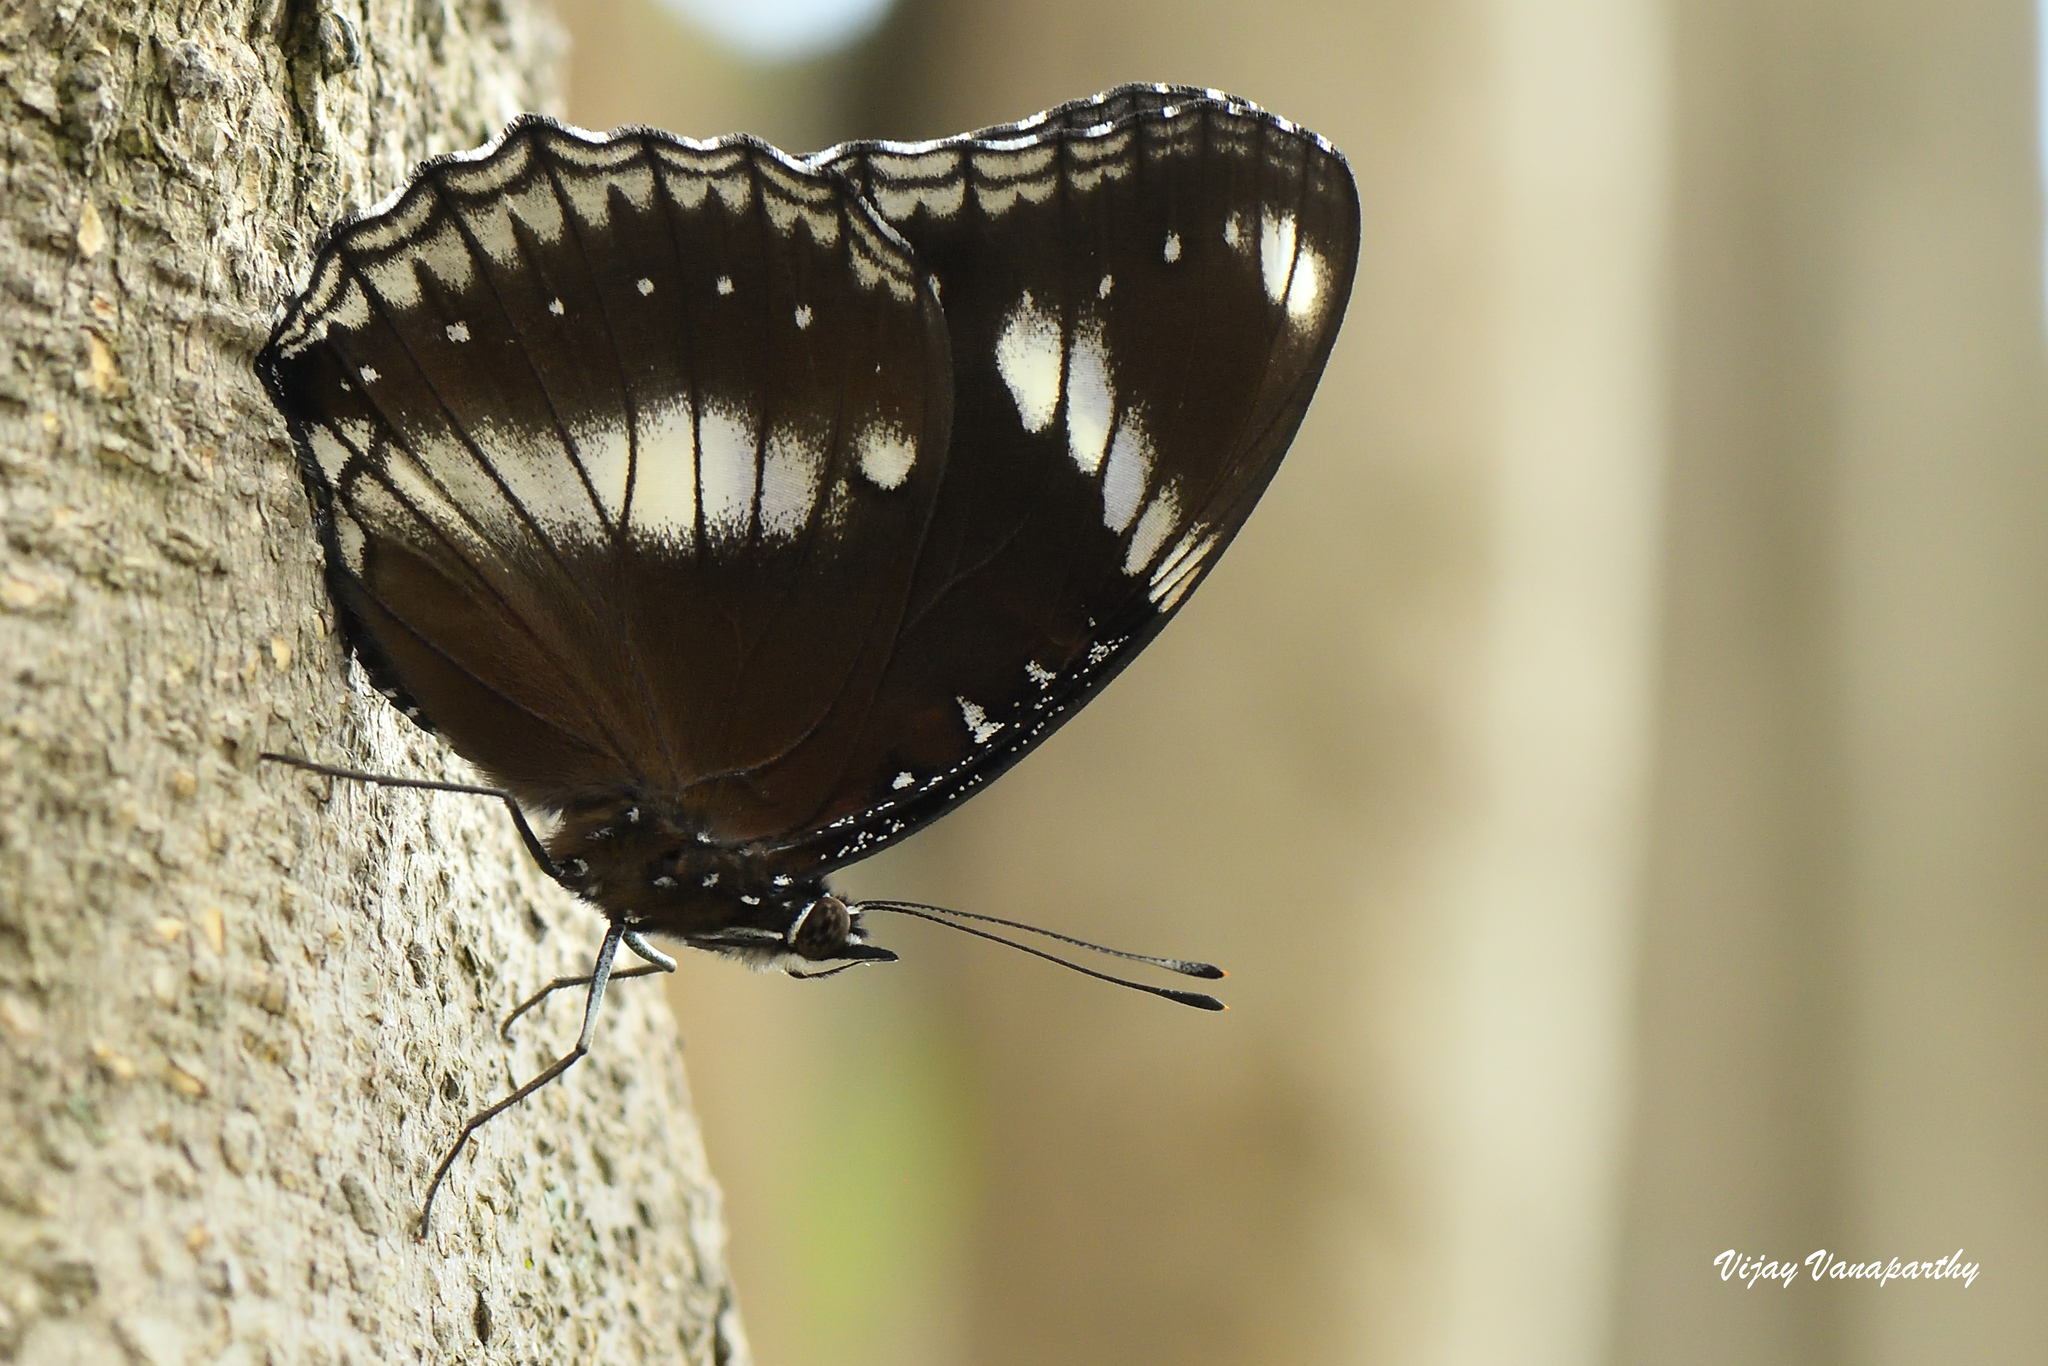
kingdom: Animalia
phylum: Arthropoda
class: Insecta
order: Lepidoptera
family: Nymphalidae
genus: Hypolimnas
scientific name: Hypolimnas bolina
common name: Great eggfly
